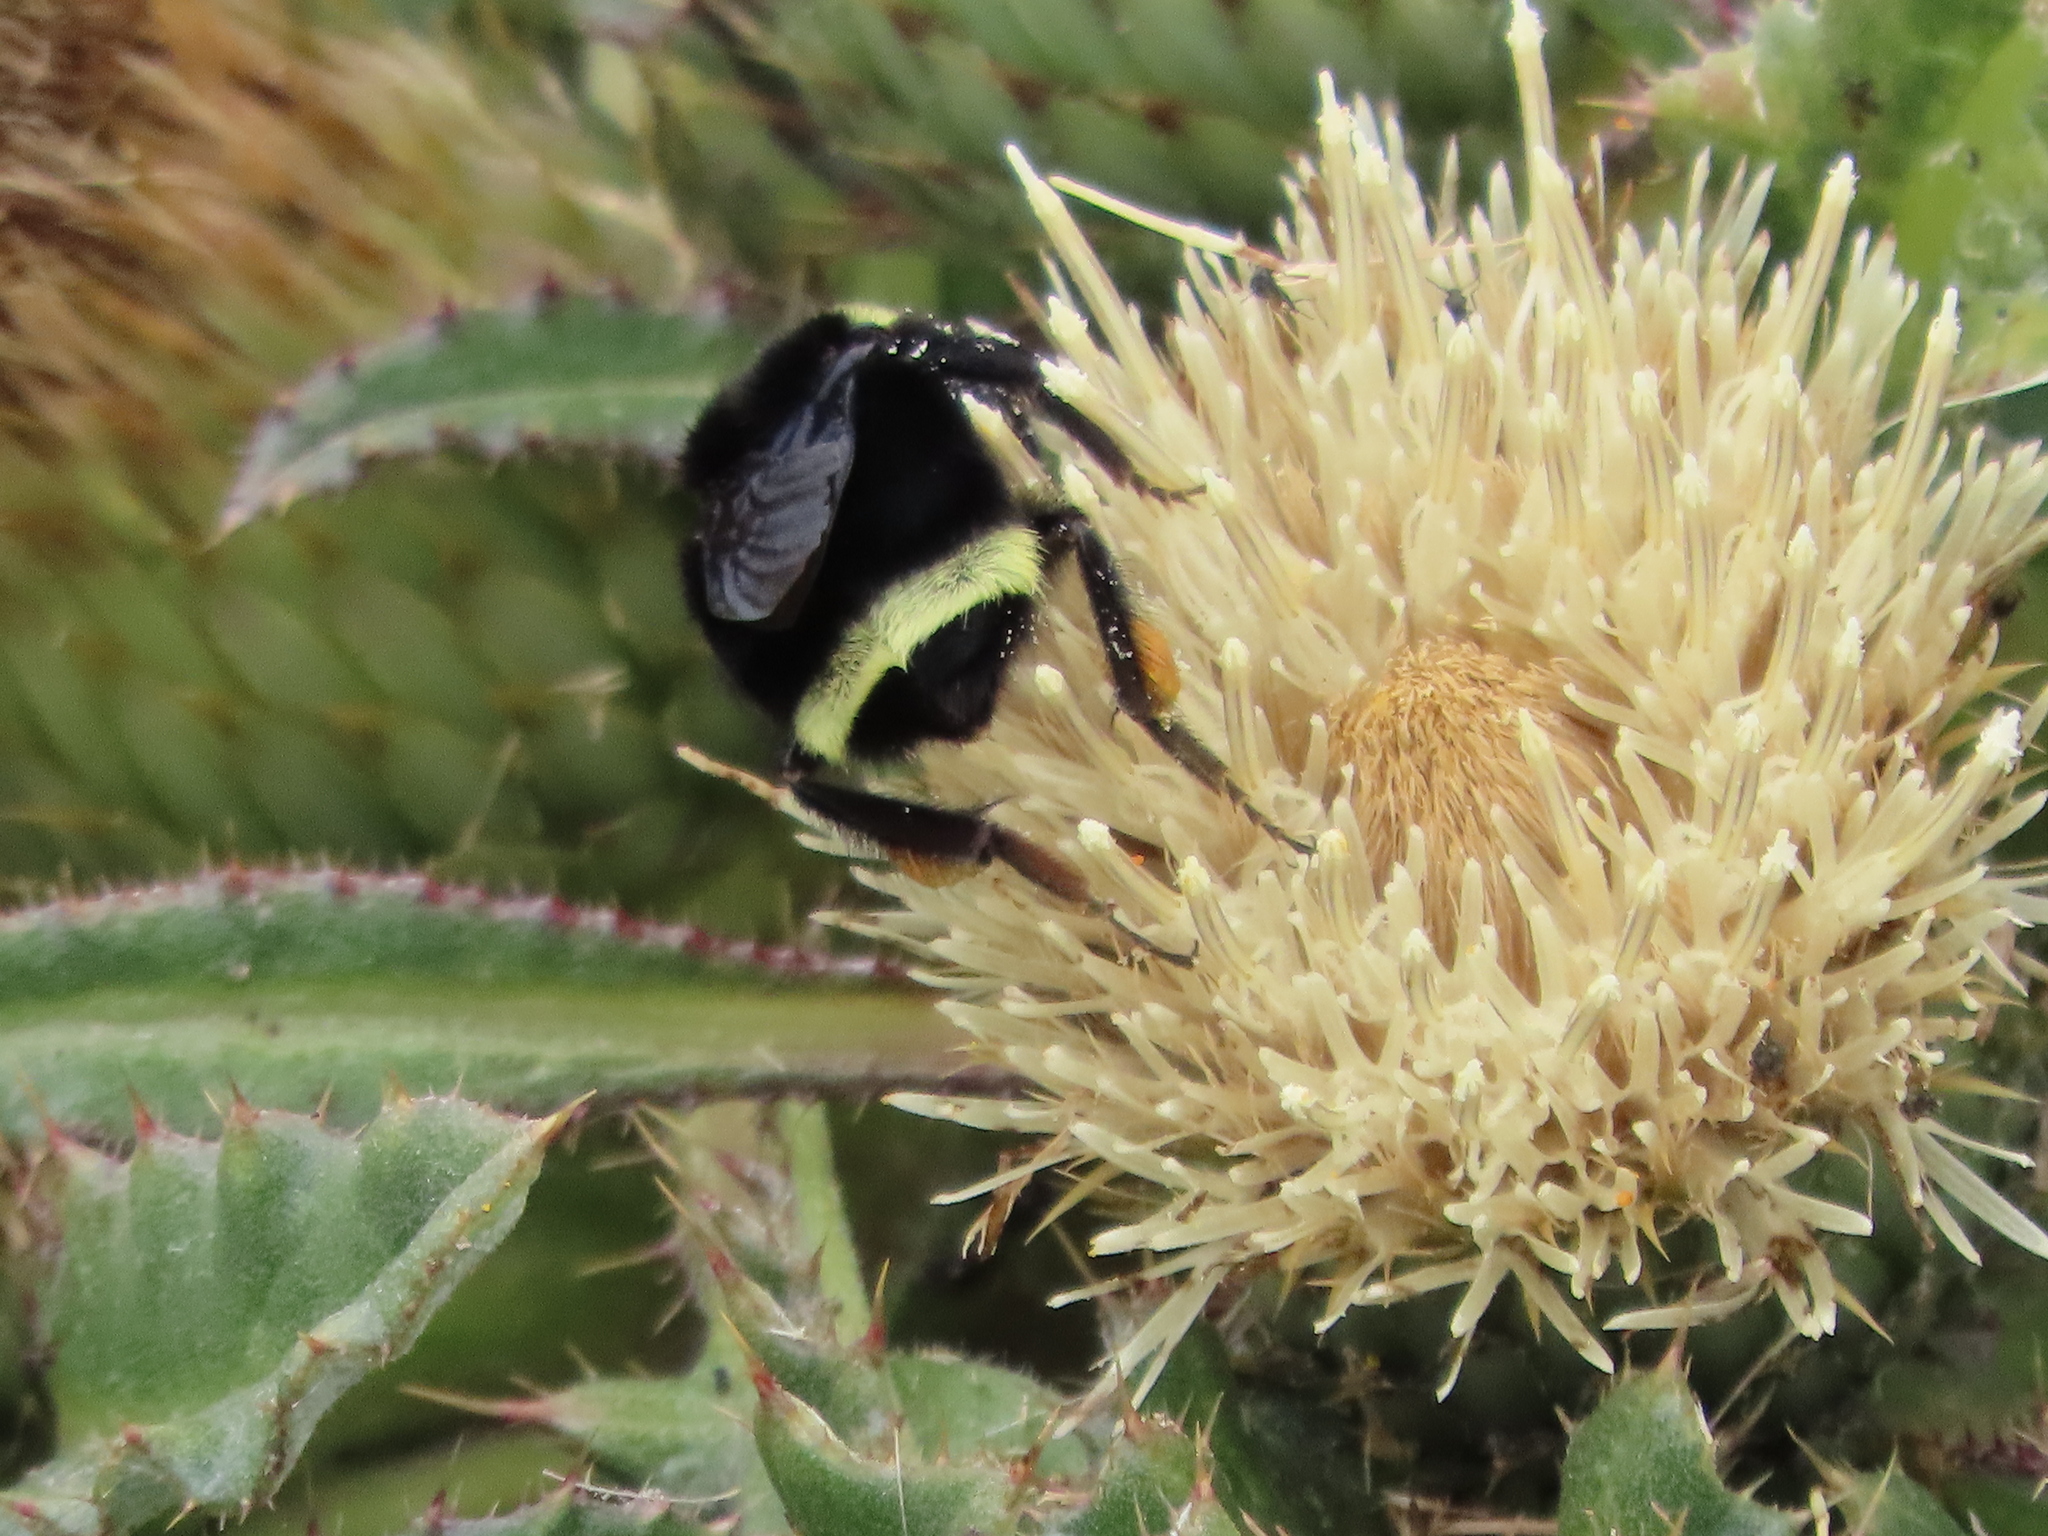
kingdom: Animalia
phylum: Arthropoda
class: Insecta
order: Hymenoptera
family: Apidae
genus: Bombus
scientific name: Bombus vosnesenskii
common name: Vosnesensky bumble bee
